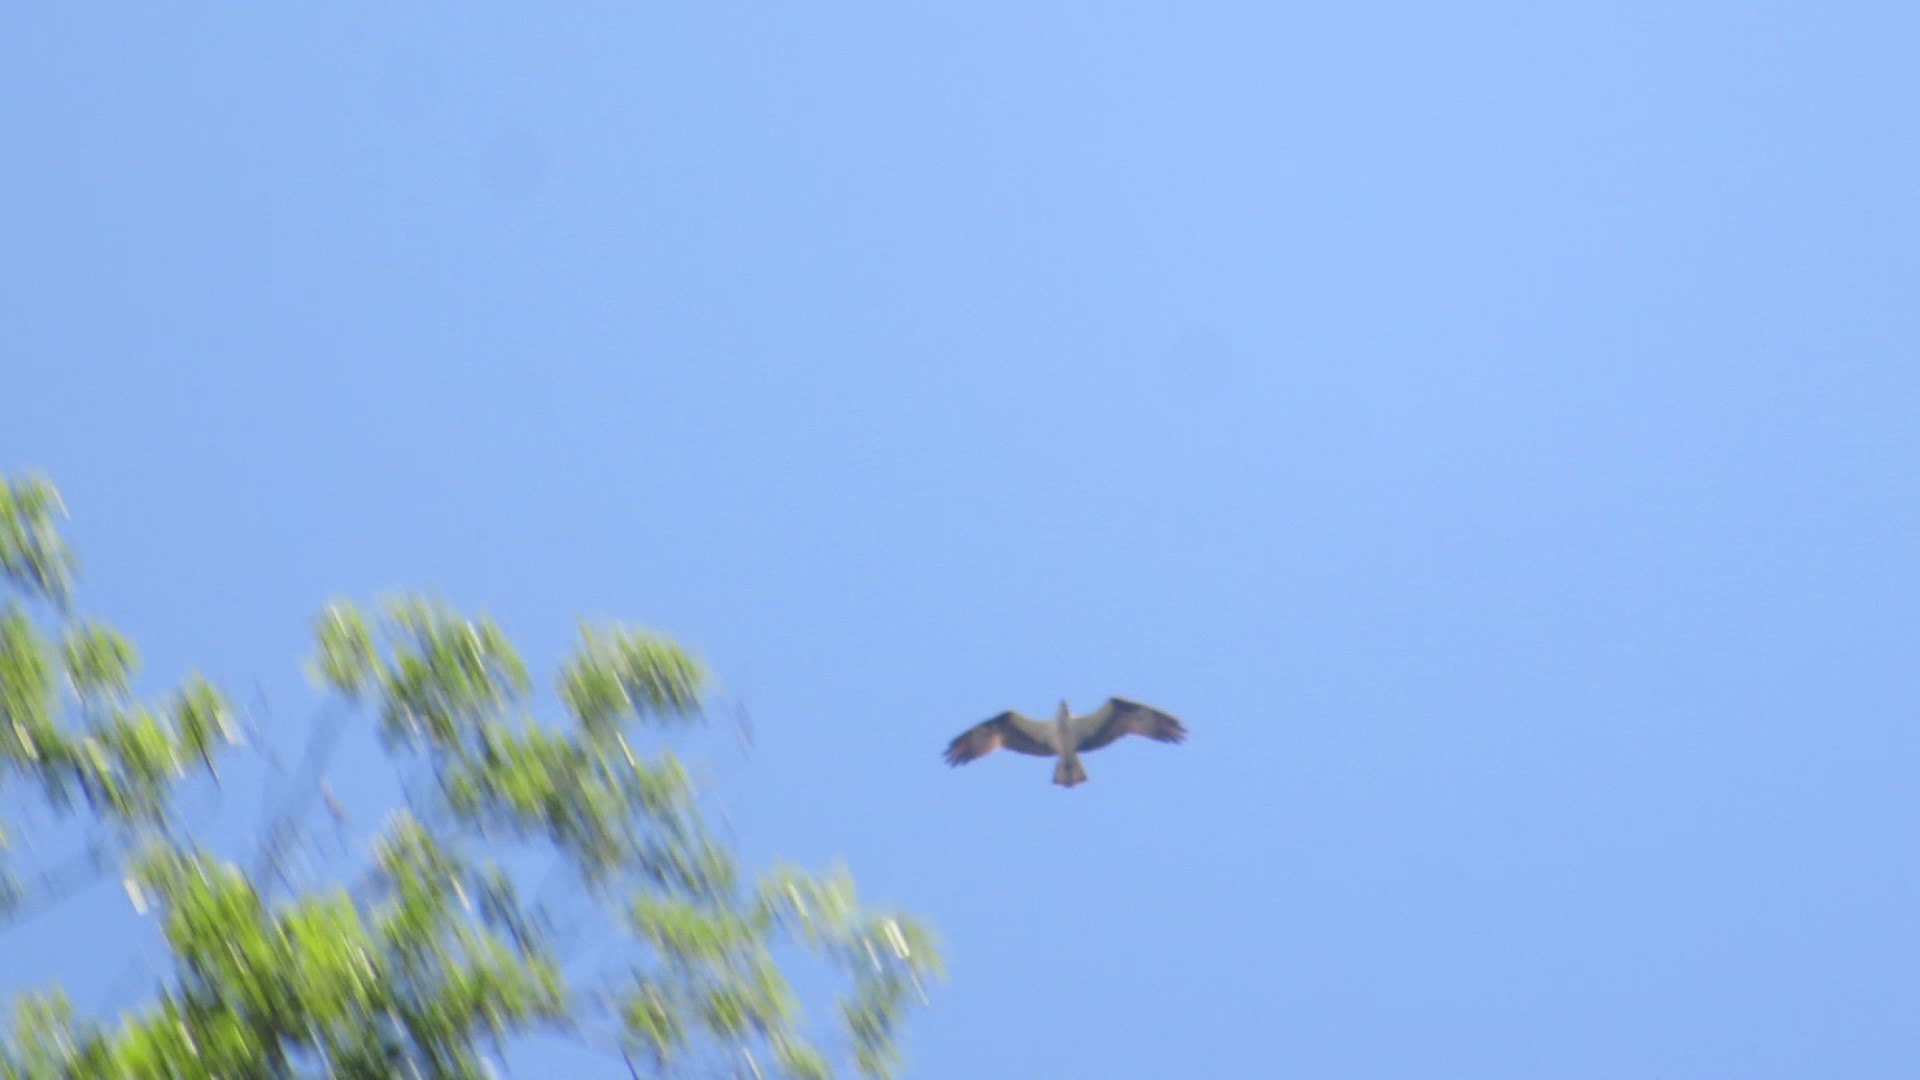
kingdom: Animalia
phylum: Chordata
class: Aves
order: Accipitriformes
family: Pandionidae
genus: Pandion
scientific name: Pandion haliaetus
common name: Osprey
